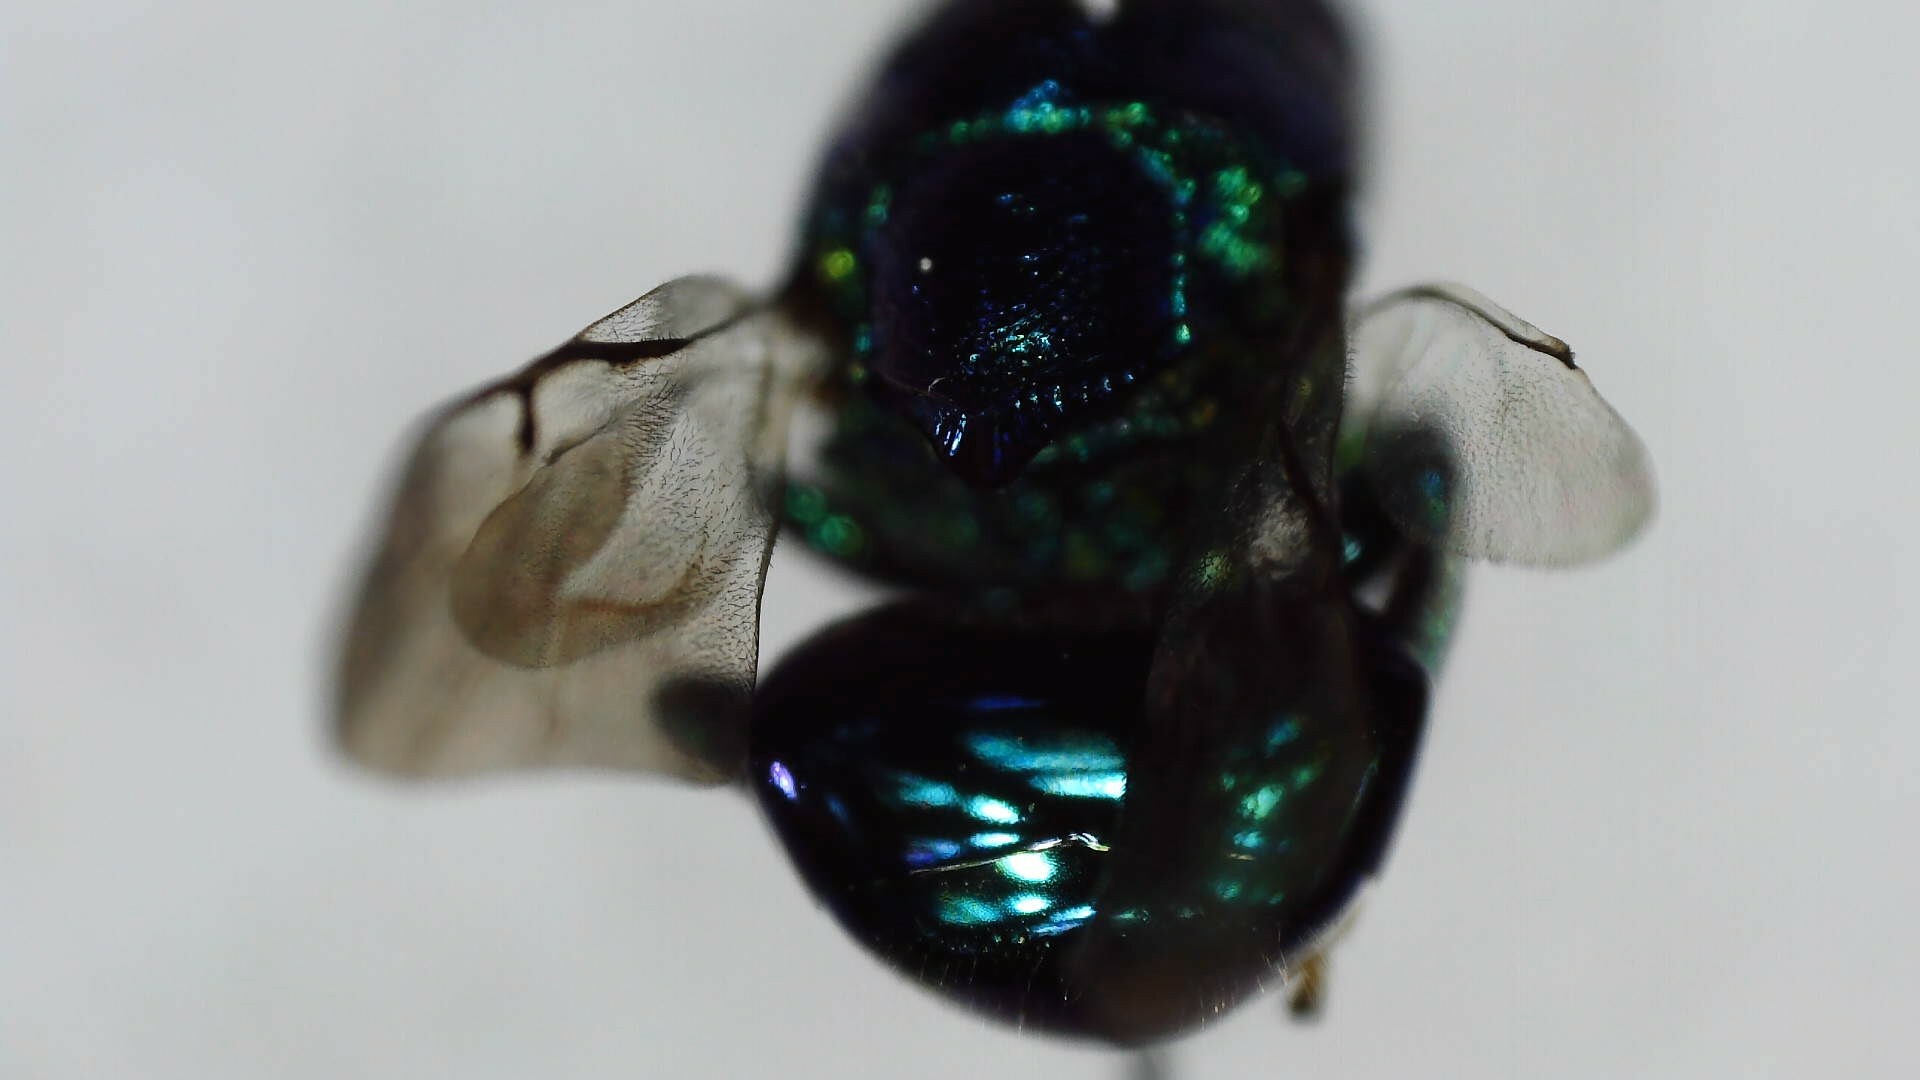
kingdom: Animalia
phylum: Arthropoda
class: Insecta
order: Hymenoptera
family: Perilampidae
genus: Euperilampus
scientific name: Euperilampus triangularis
